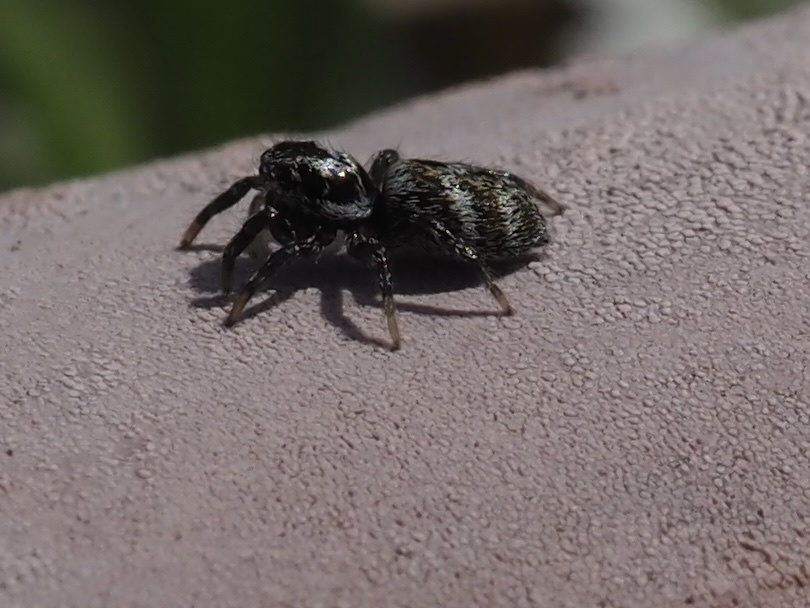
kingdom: Animalia
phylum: Arthropoda
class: Arachnida
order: Araneae
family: Salticidae
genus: Salticus
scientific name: Salticus scenicus
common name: Zebra jumper
